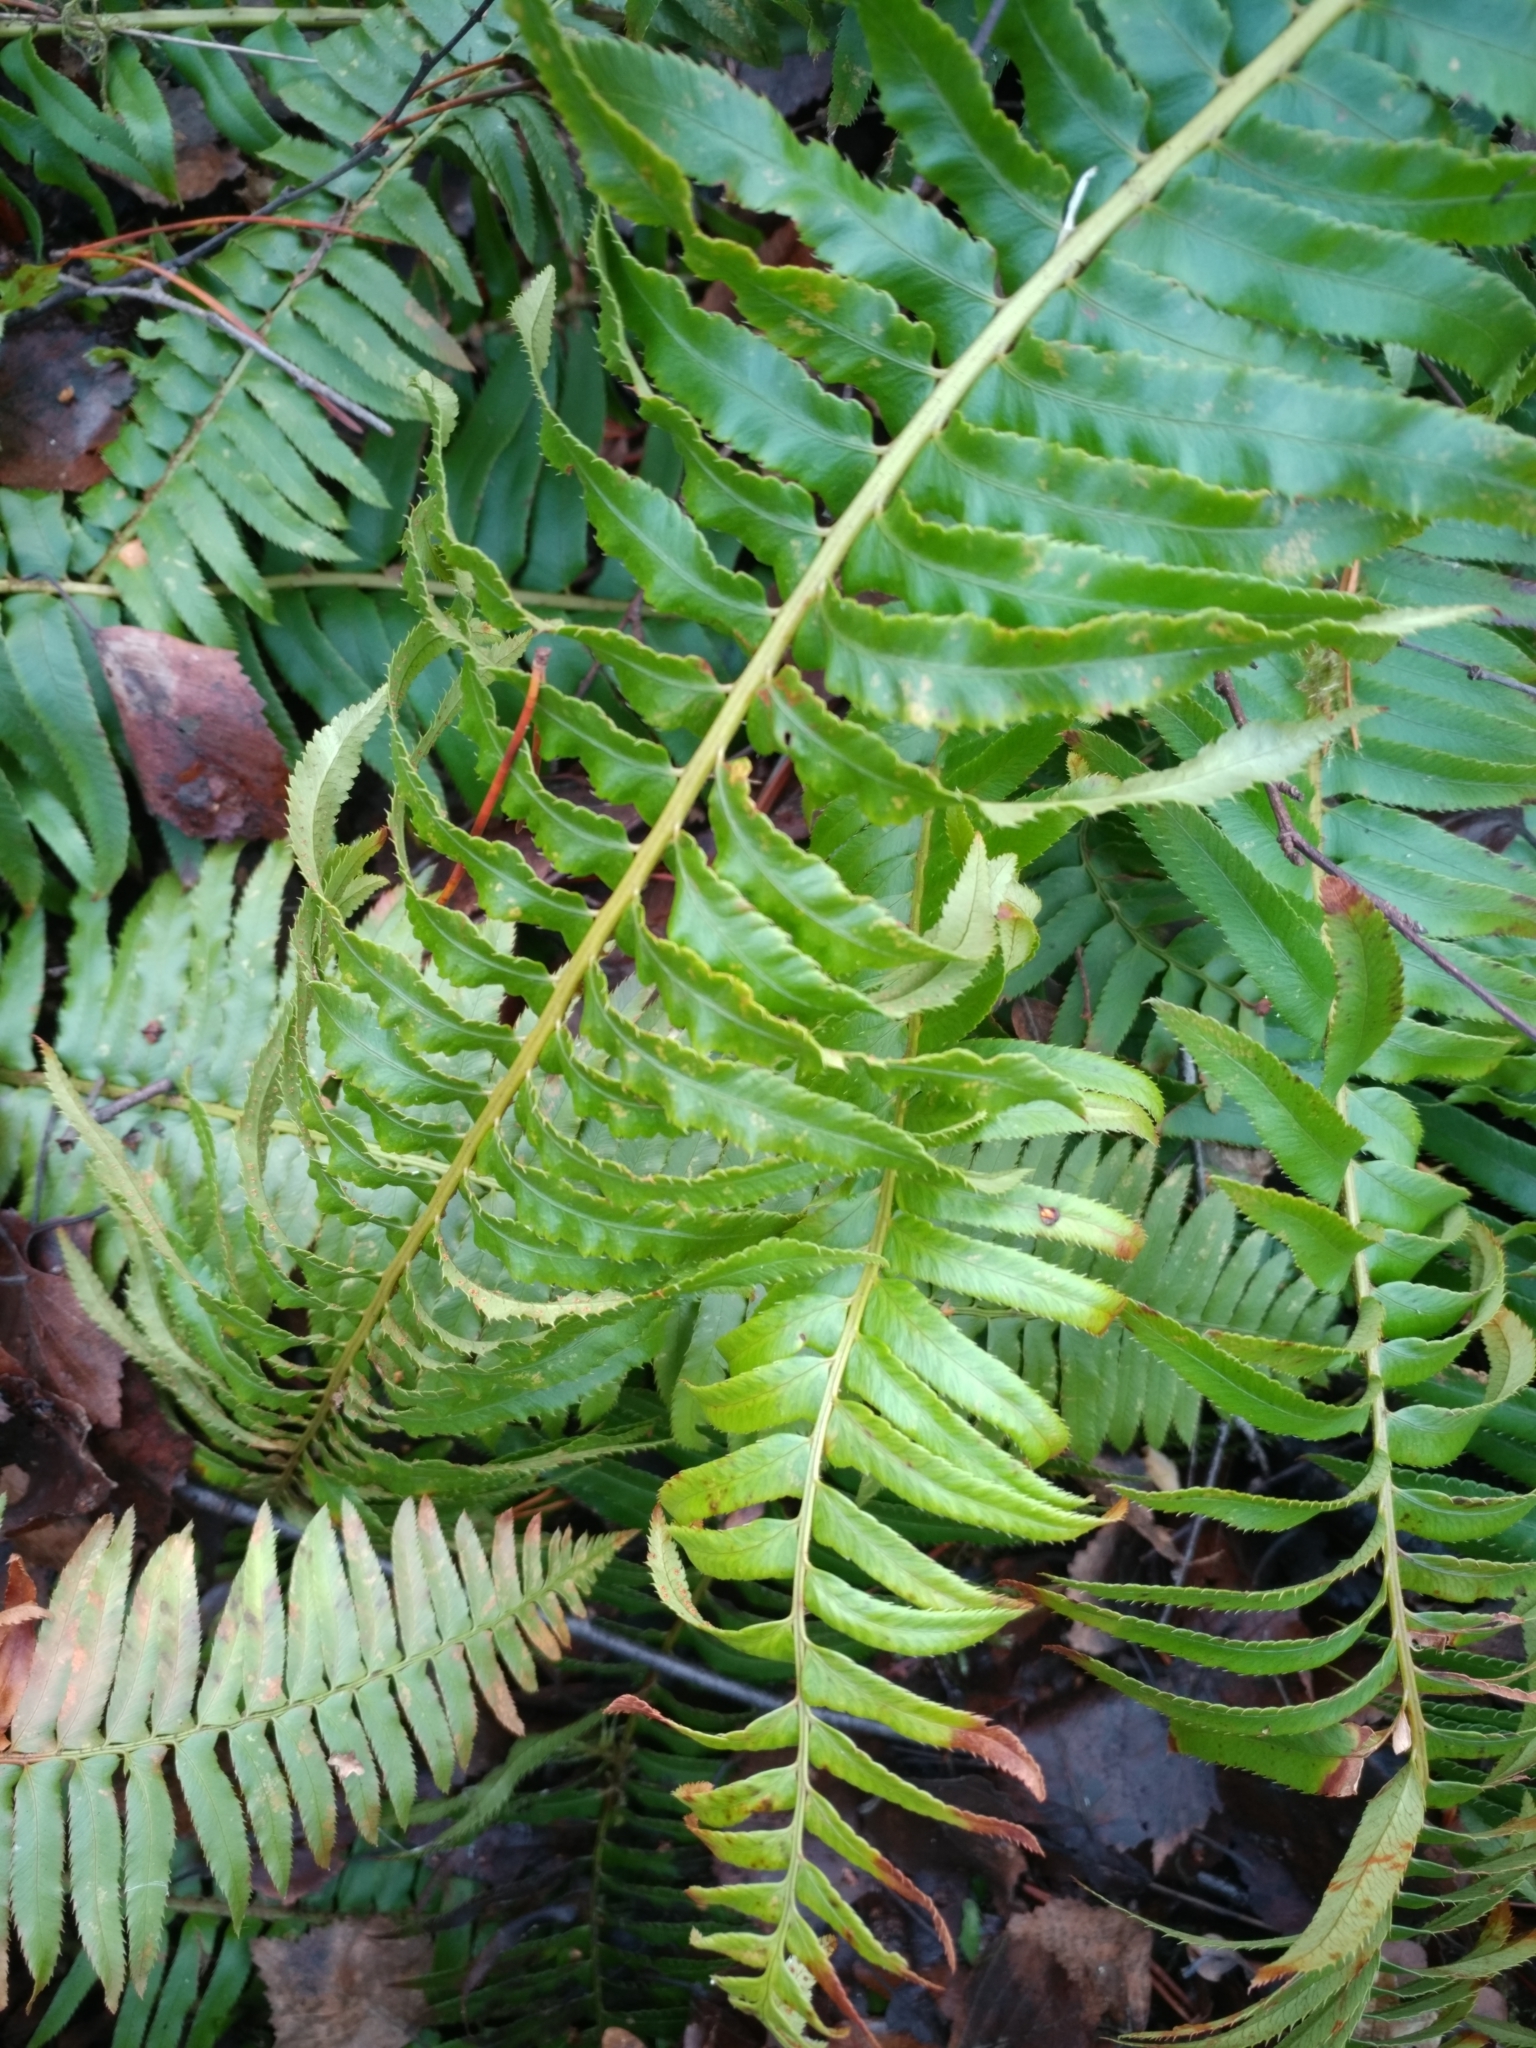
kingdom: Plantae
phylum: Tracheophyta
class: Polypodiopsida
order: Polypodiales
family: Dryopteridaceae
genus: Polystichum
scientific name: Polystichum munitum
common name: Western sword-fern
